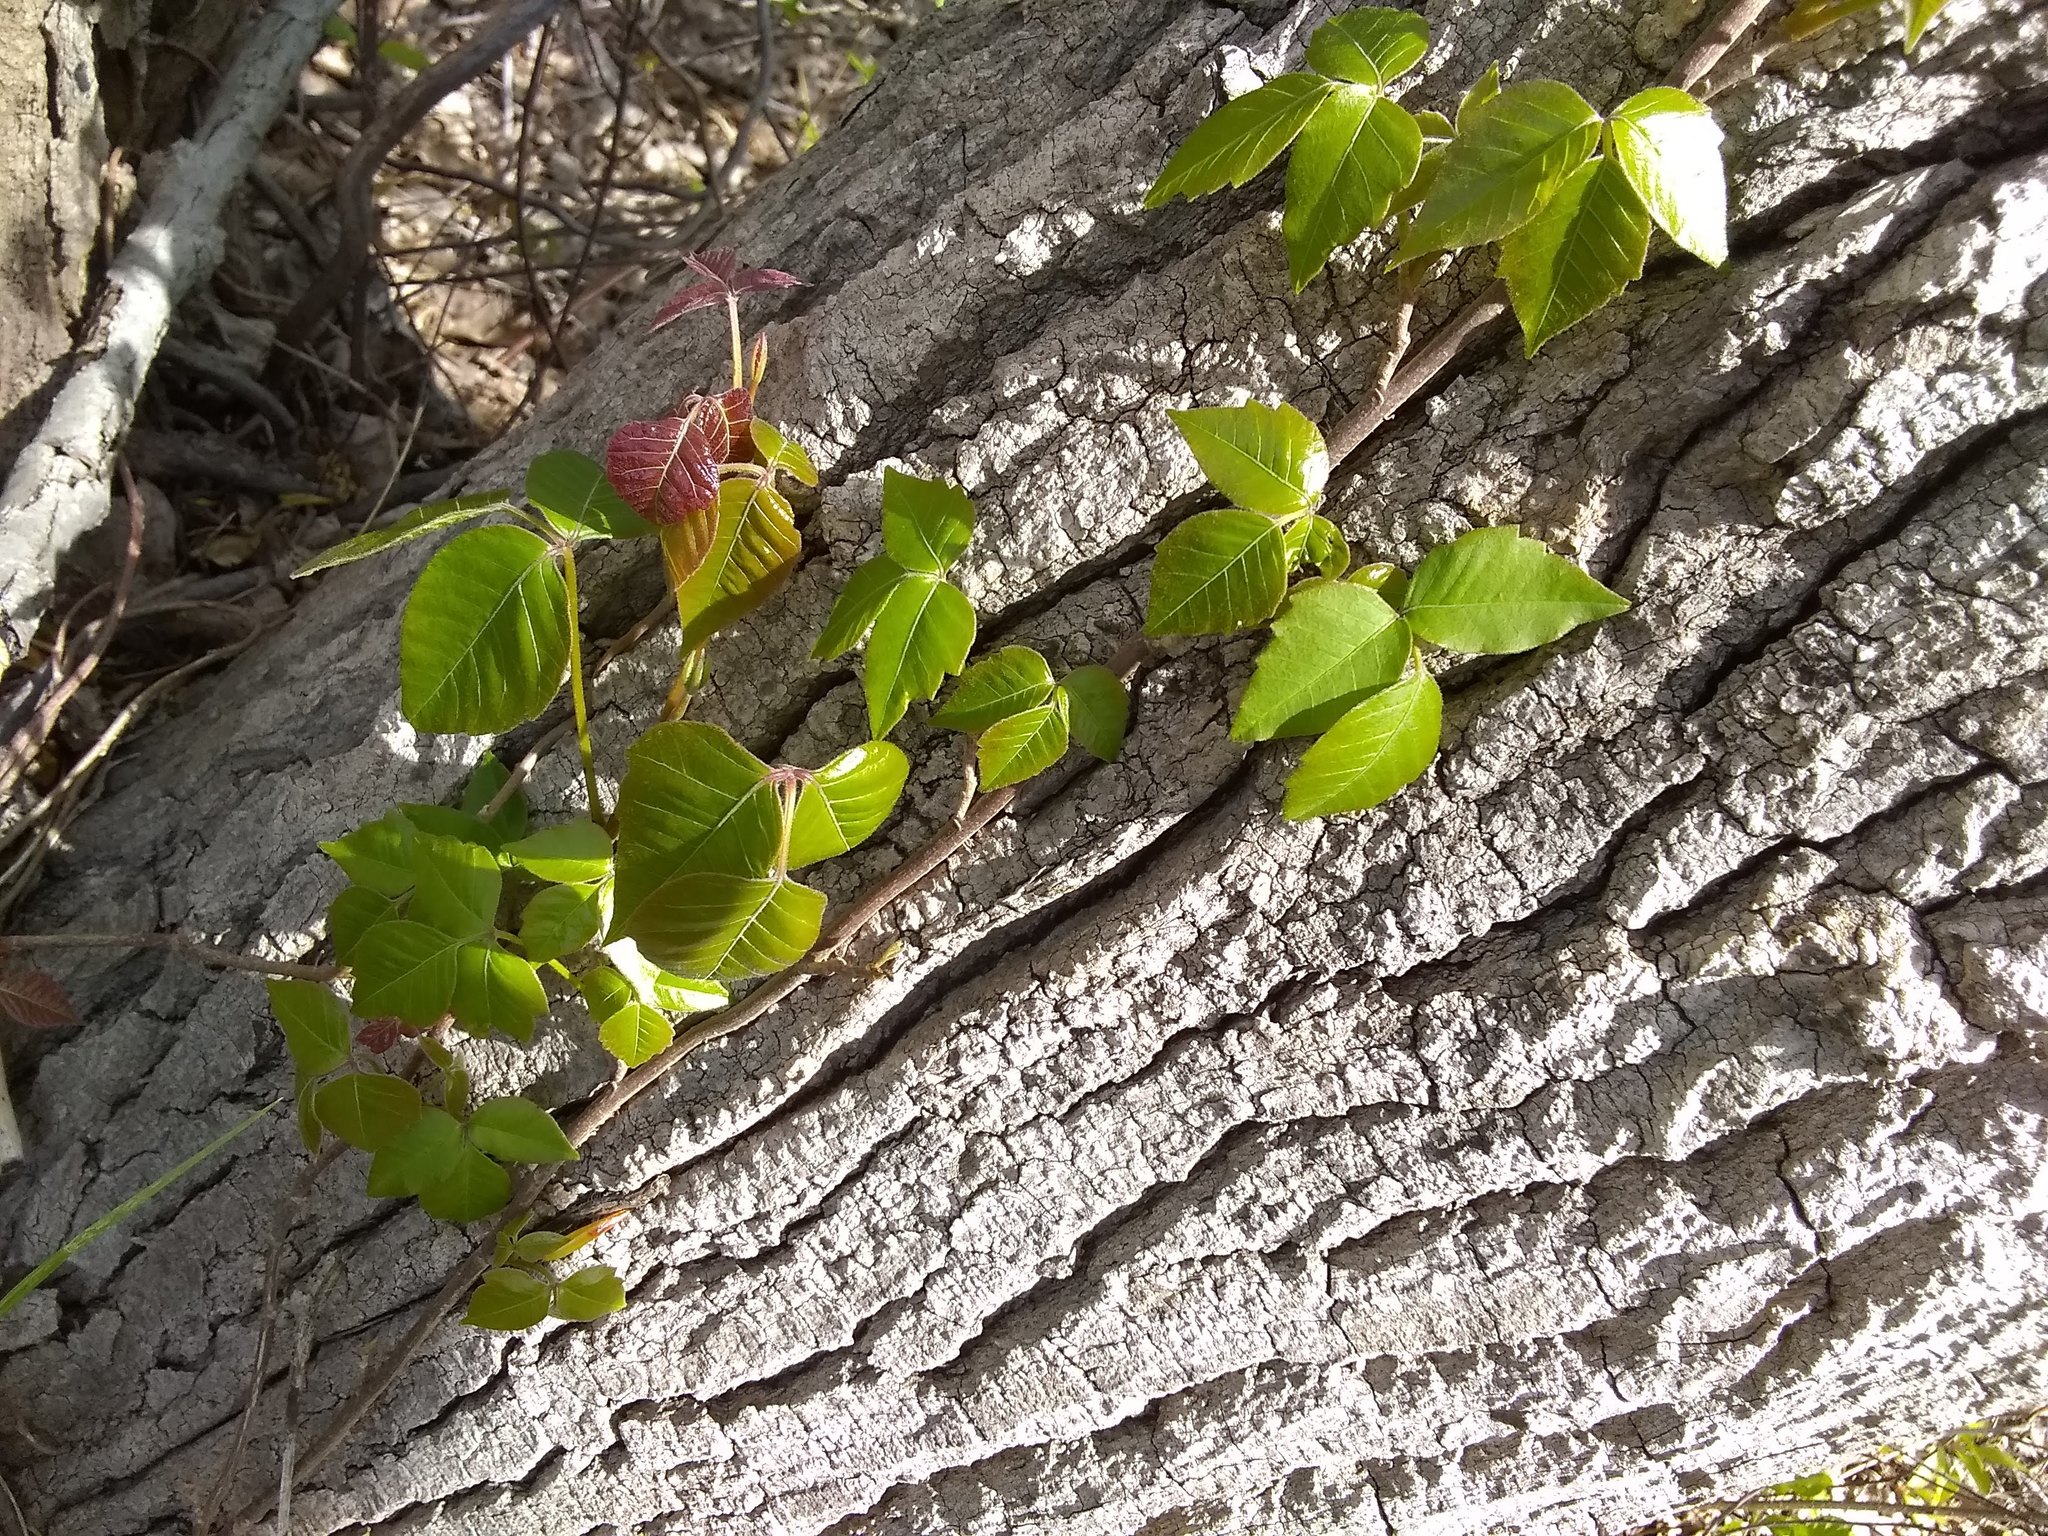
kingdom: Plantae
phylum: Tracheophyta
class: Magnoliopsida
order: Sapindales
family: Anacardiaceae
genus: Toxicodendron
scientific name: Toxicodendron radicans
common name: Poison ivy
